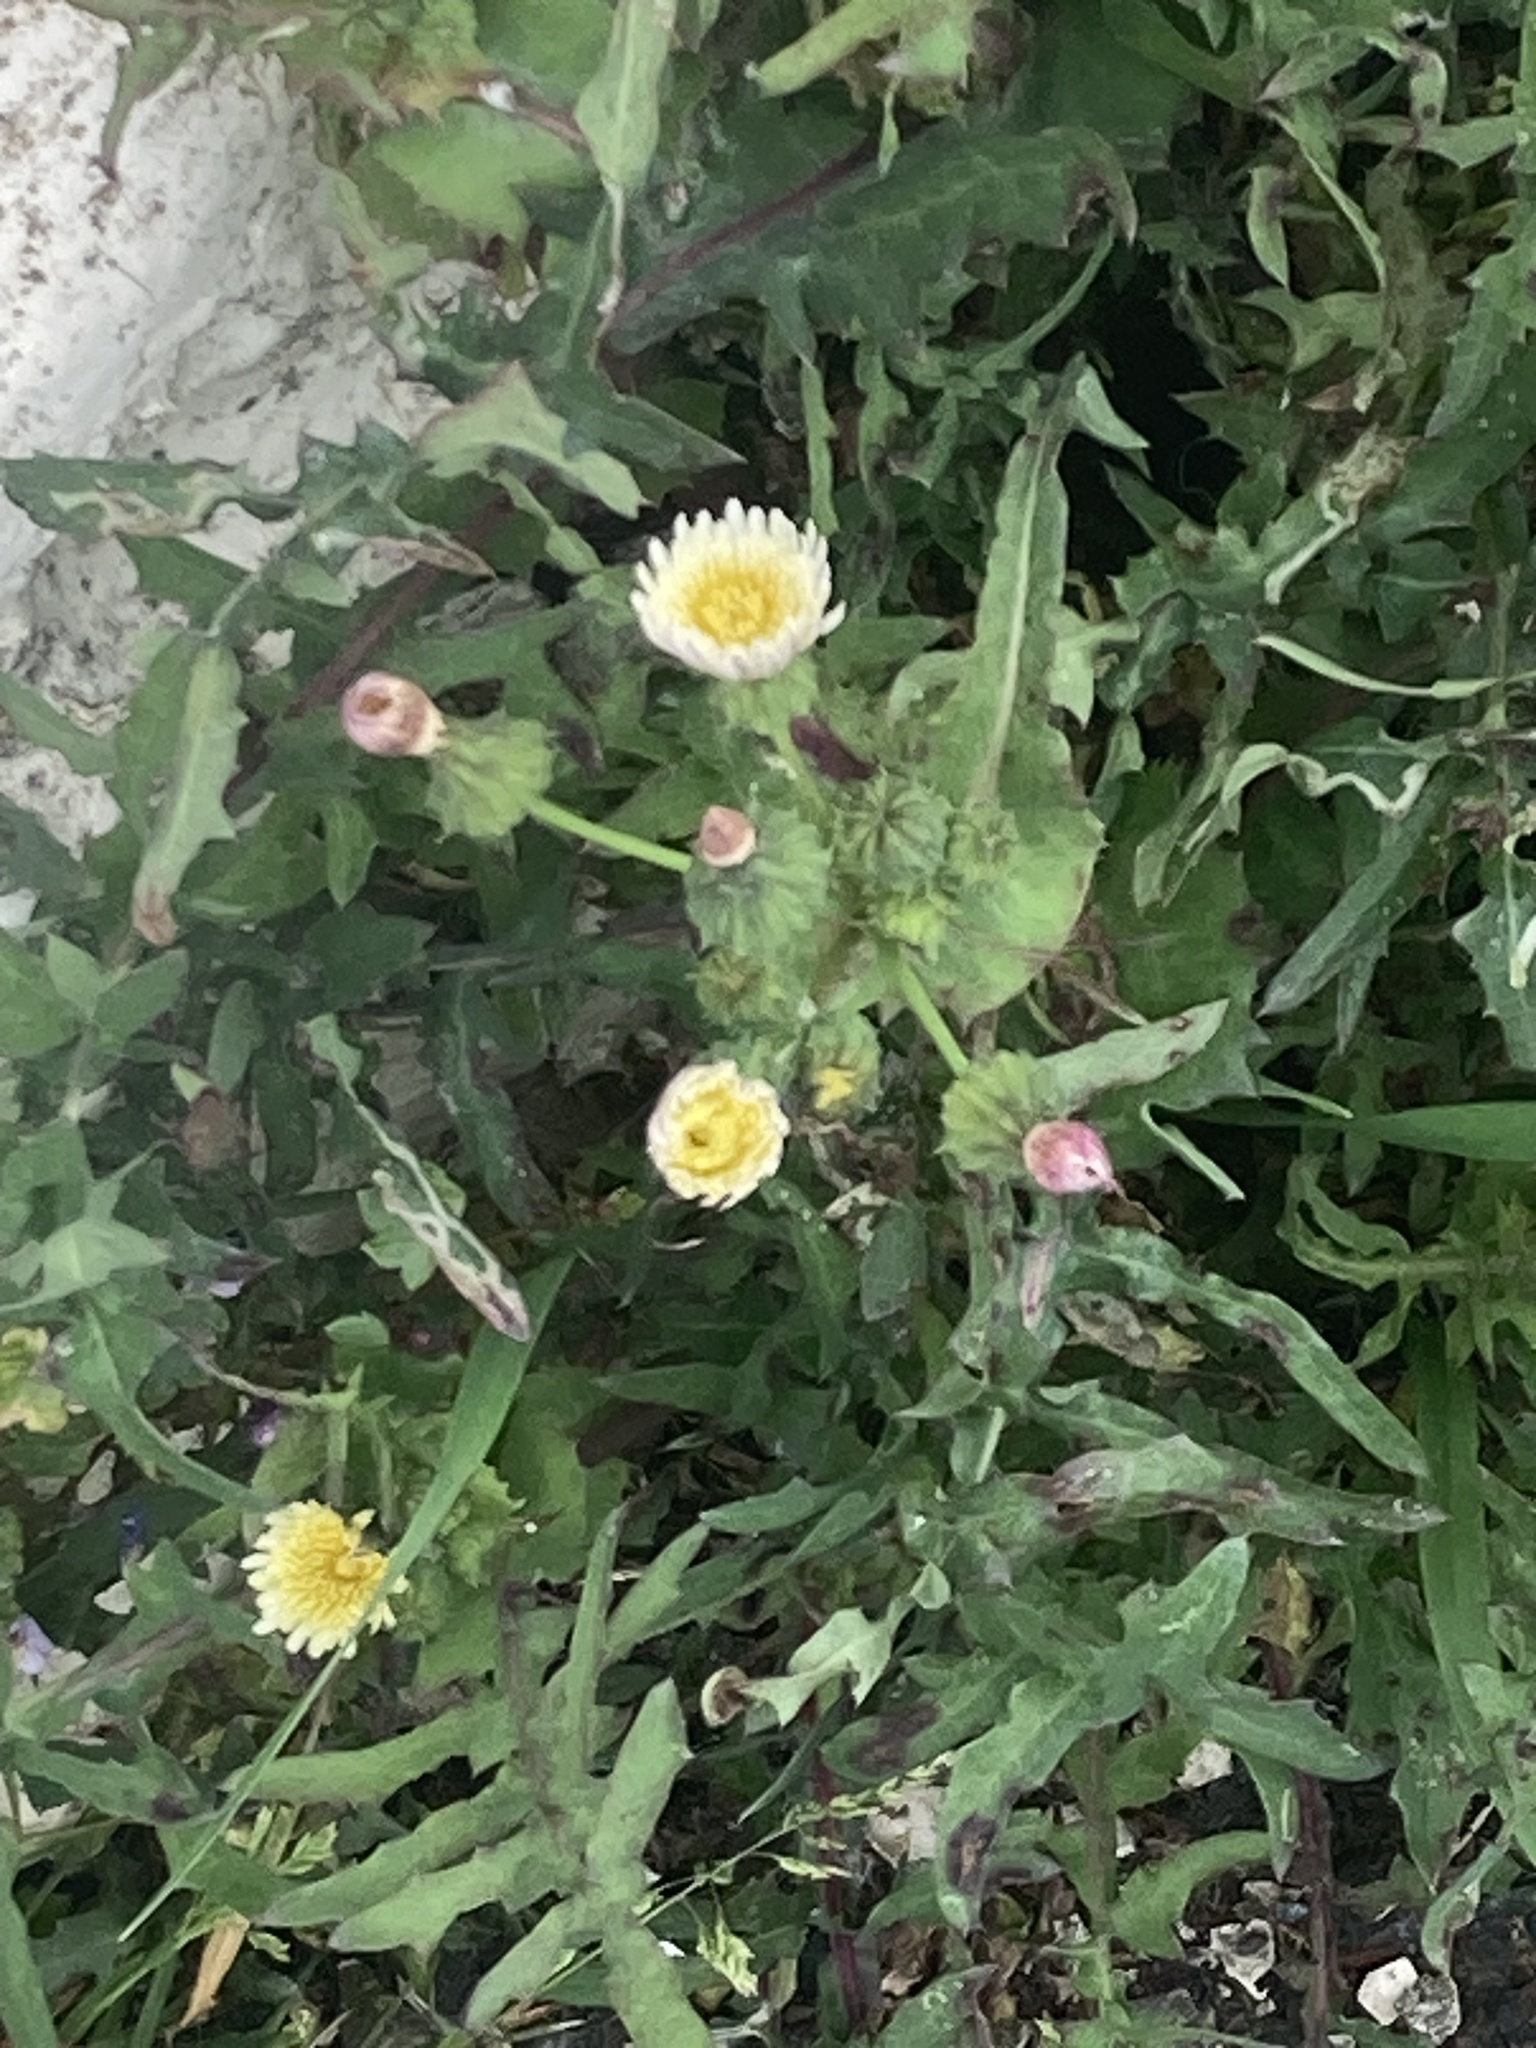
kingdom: Plantae
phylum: Tracheophyta
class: Magnoliopsida
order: Asterales
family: Asteraceae
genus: Sonchus
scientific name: Sonchus oleraceus
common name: Common sowthistle
